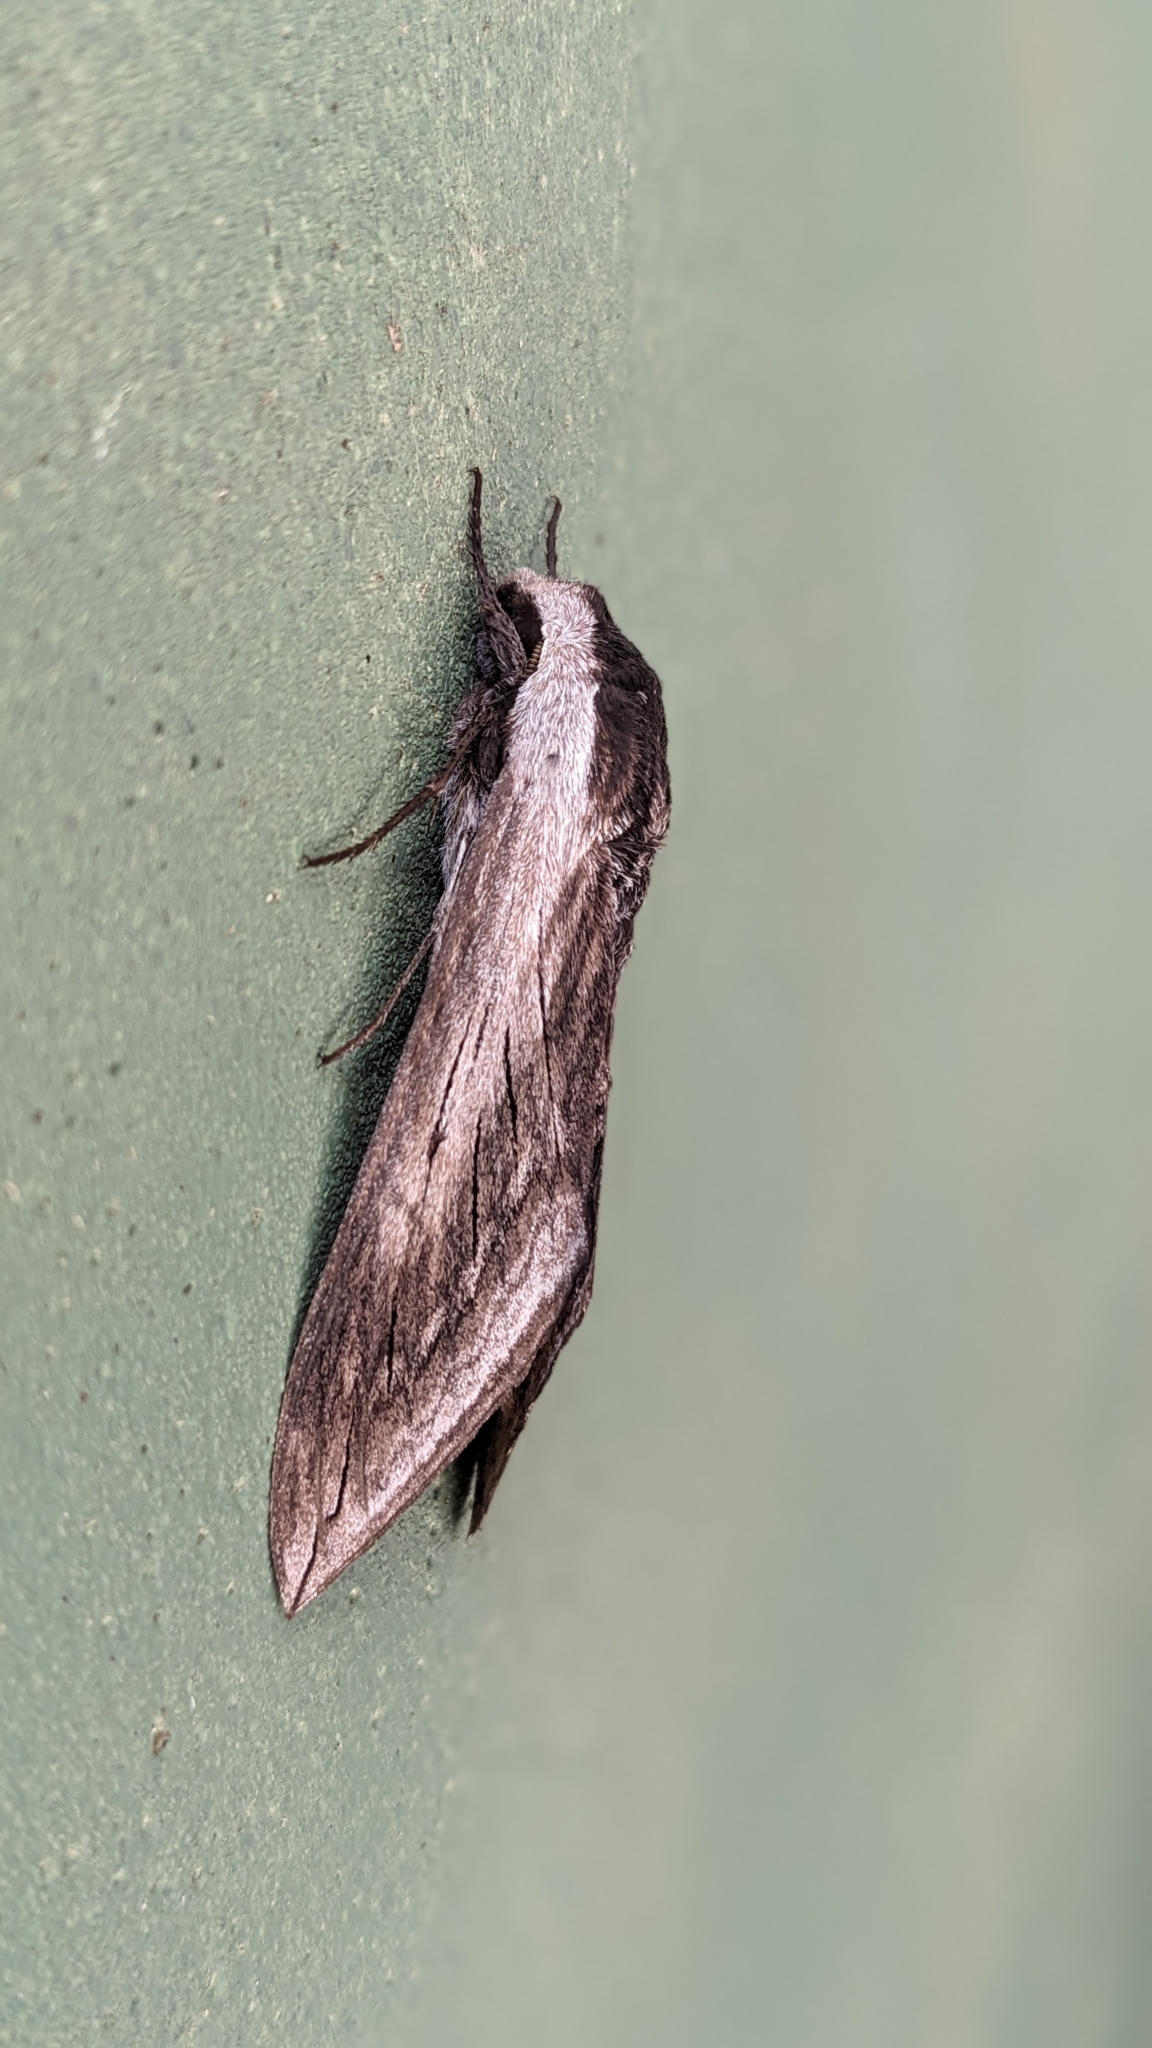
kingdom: Animalia
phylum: Arthropoda
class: Insecta
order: Lepidoptera
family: Sphingidae
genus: Sphinx
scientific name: Sphinx perelegans
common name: Elegant sphinx
